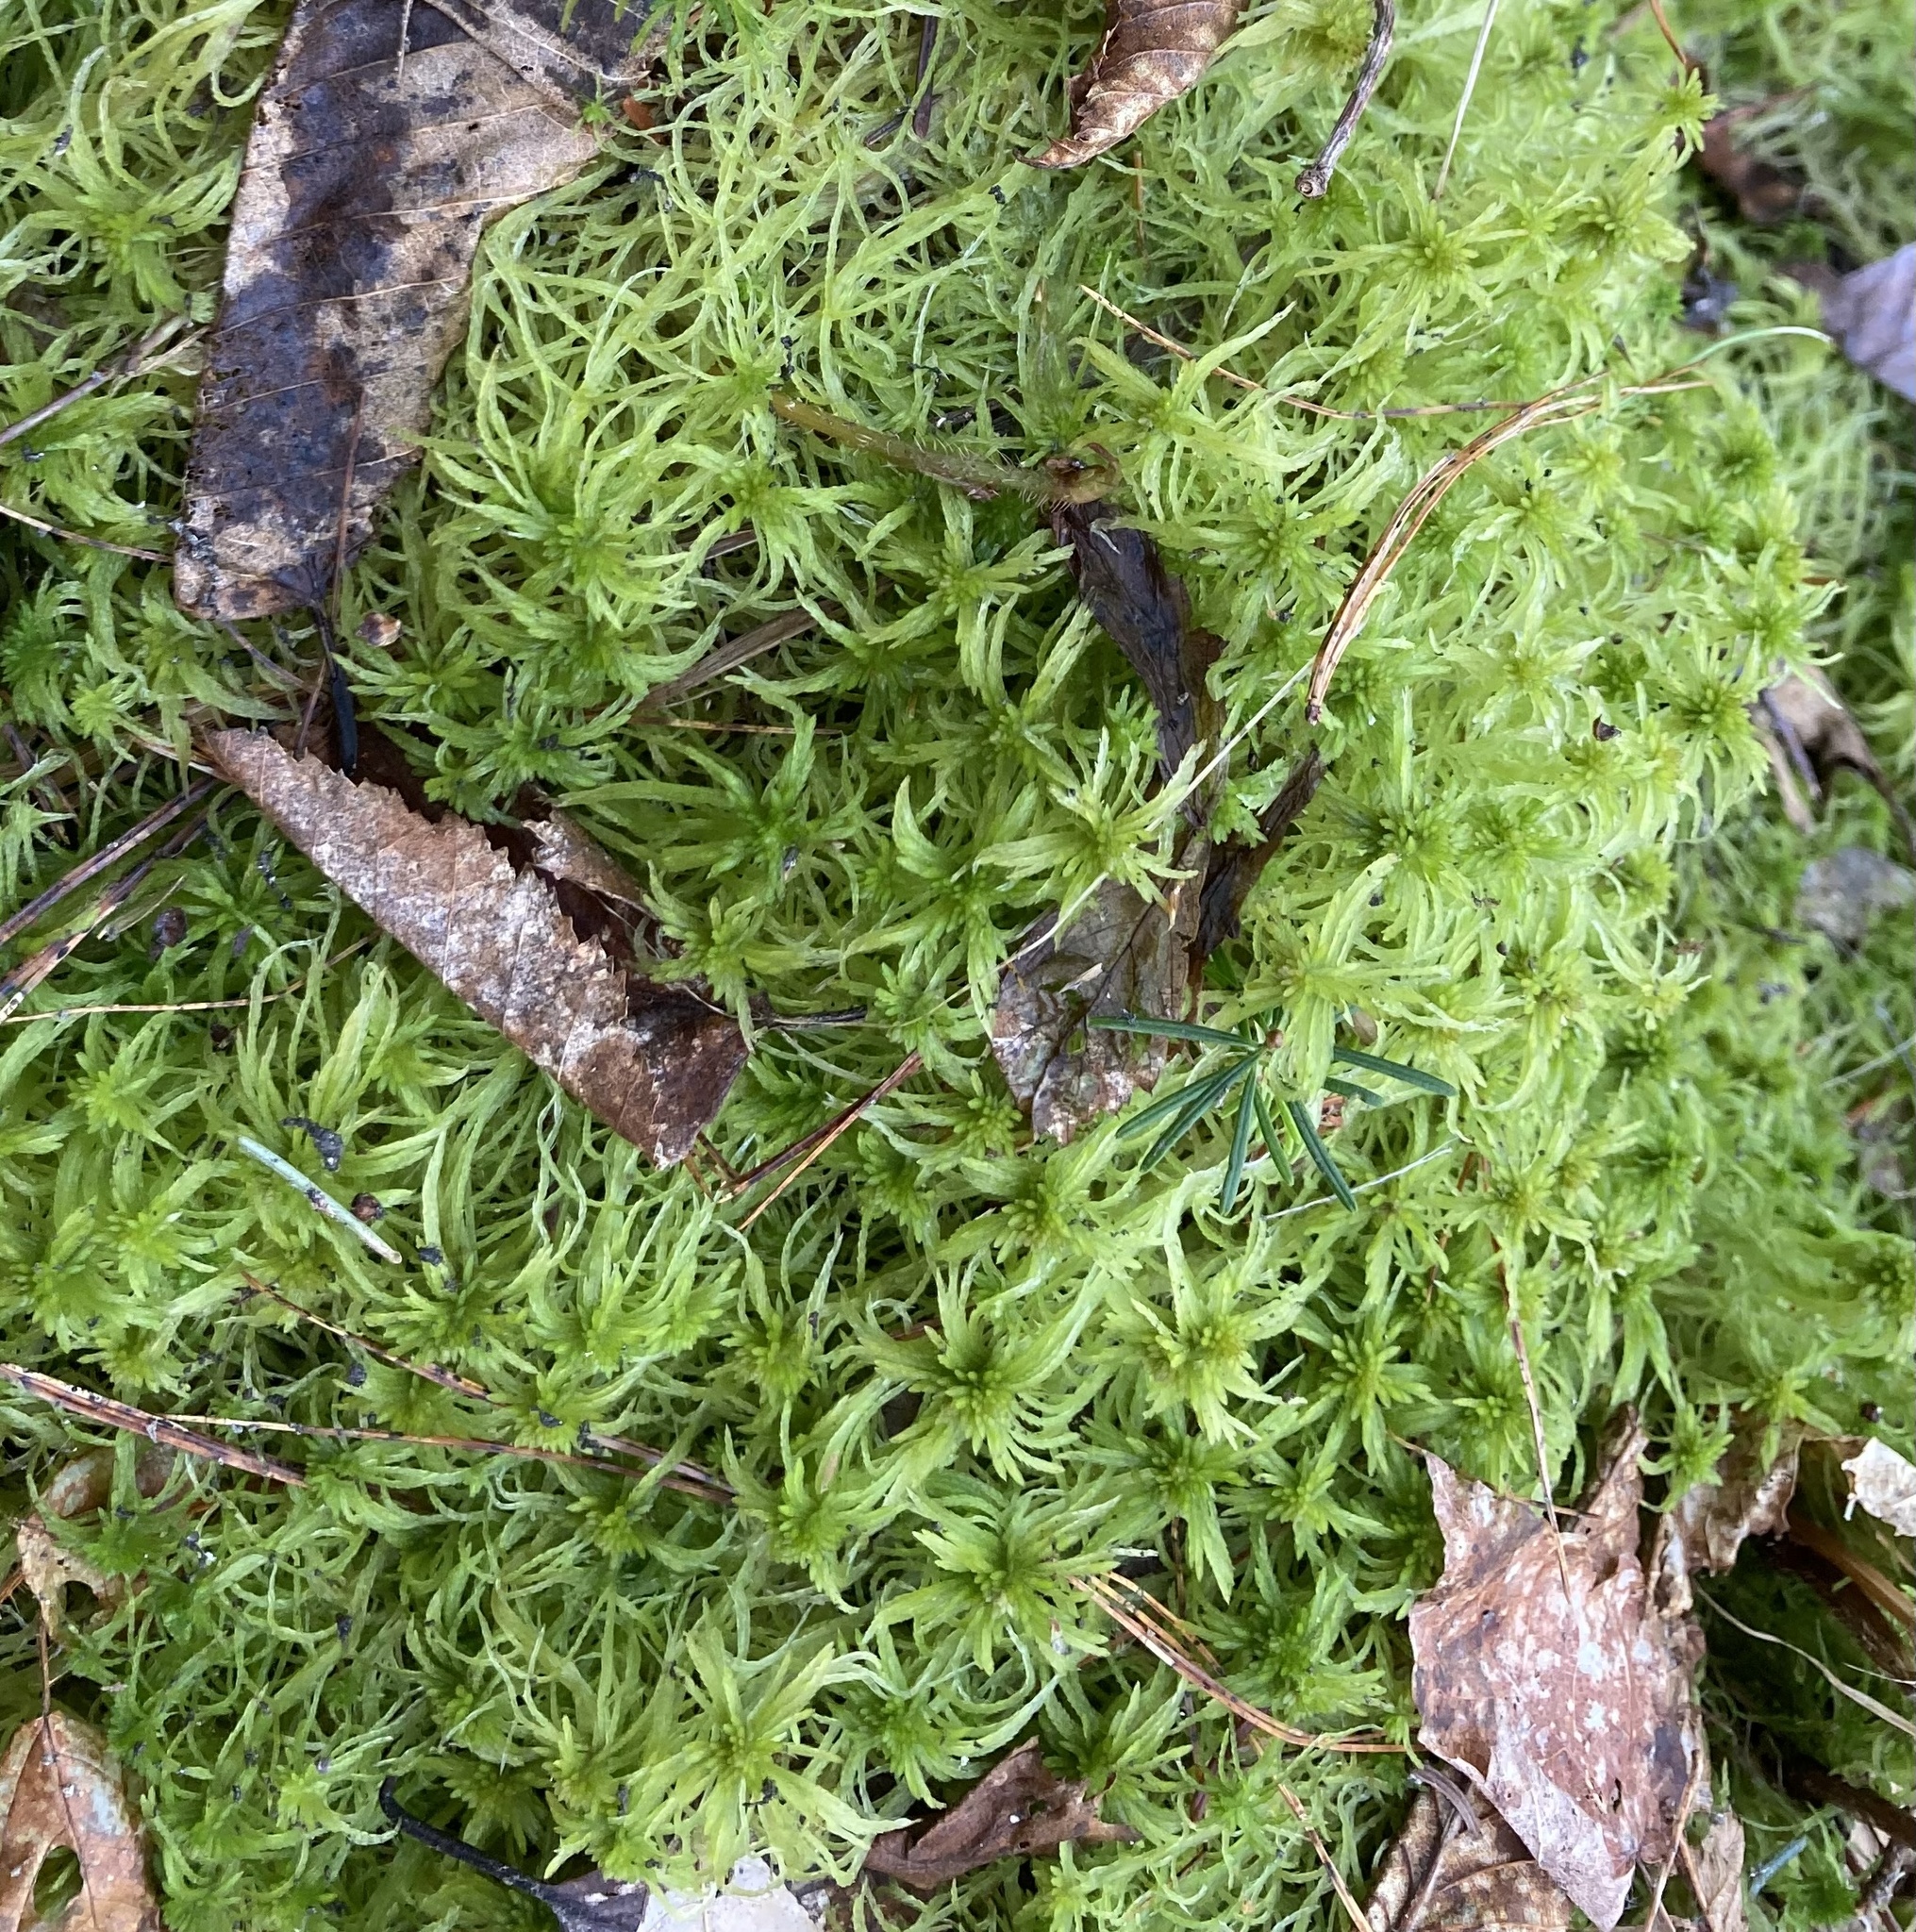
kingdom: Plantae
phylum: Bryophyta
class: Sphagnopsida
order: Sphagnales
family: Sphagnaceae
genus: Sphagnum
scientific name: Sphagnum girgensohnii
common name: Girgensohn's peat moss
